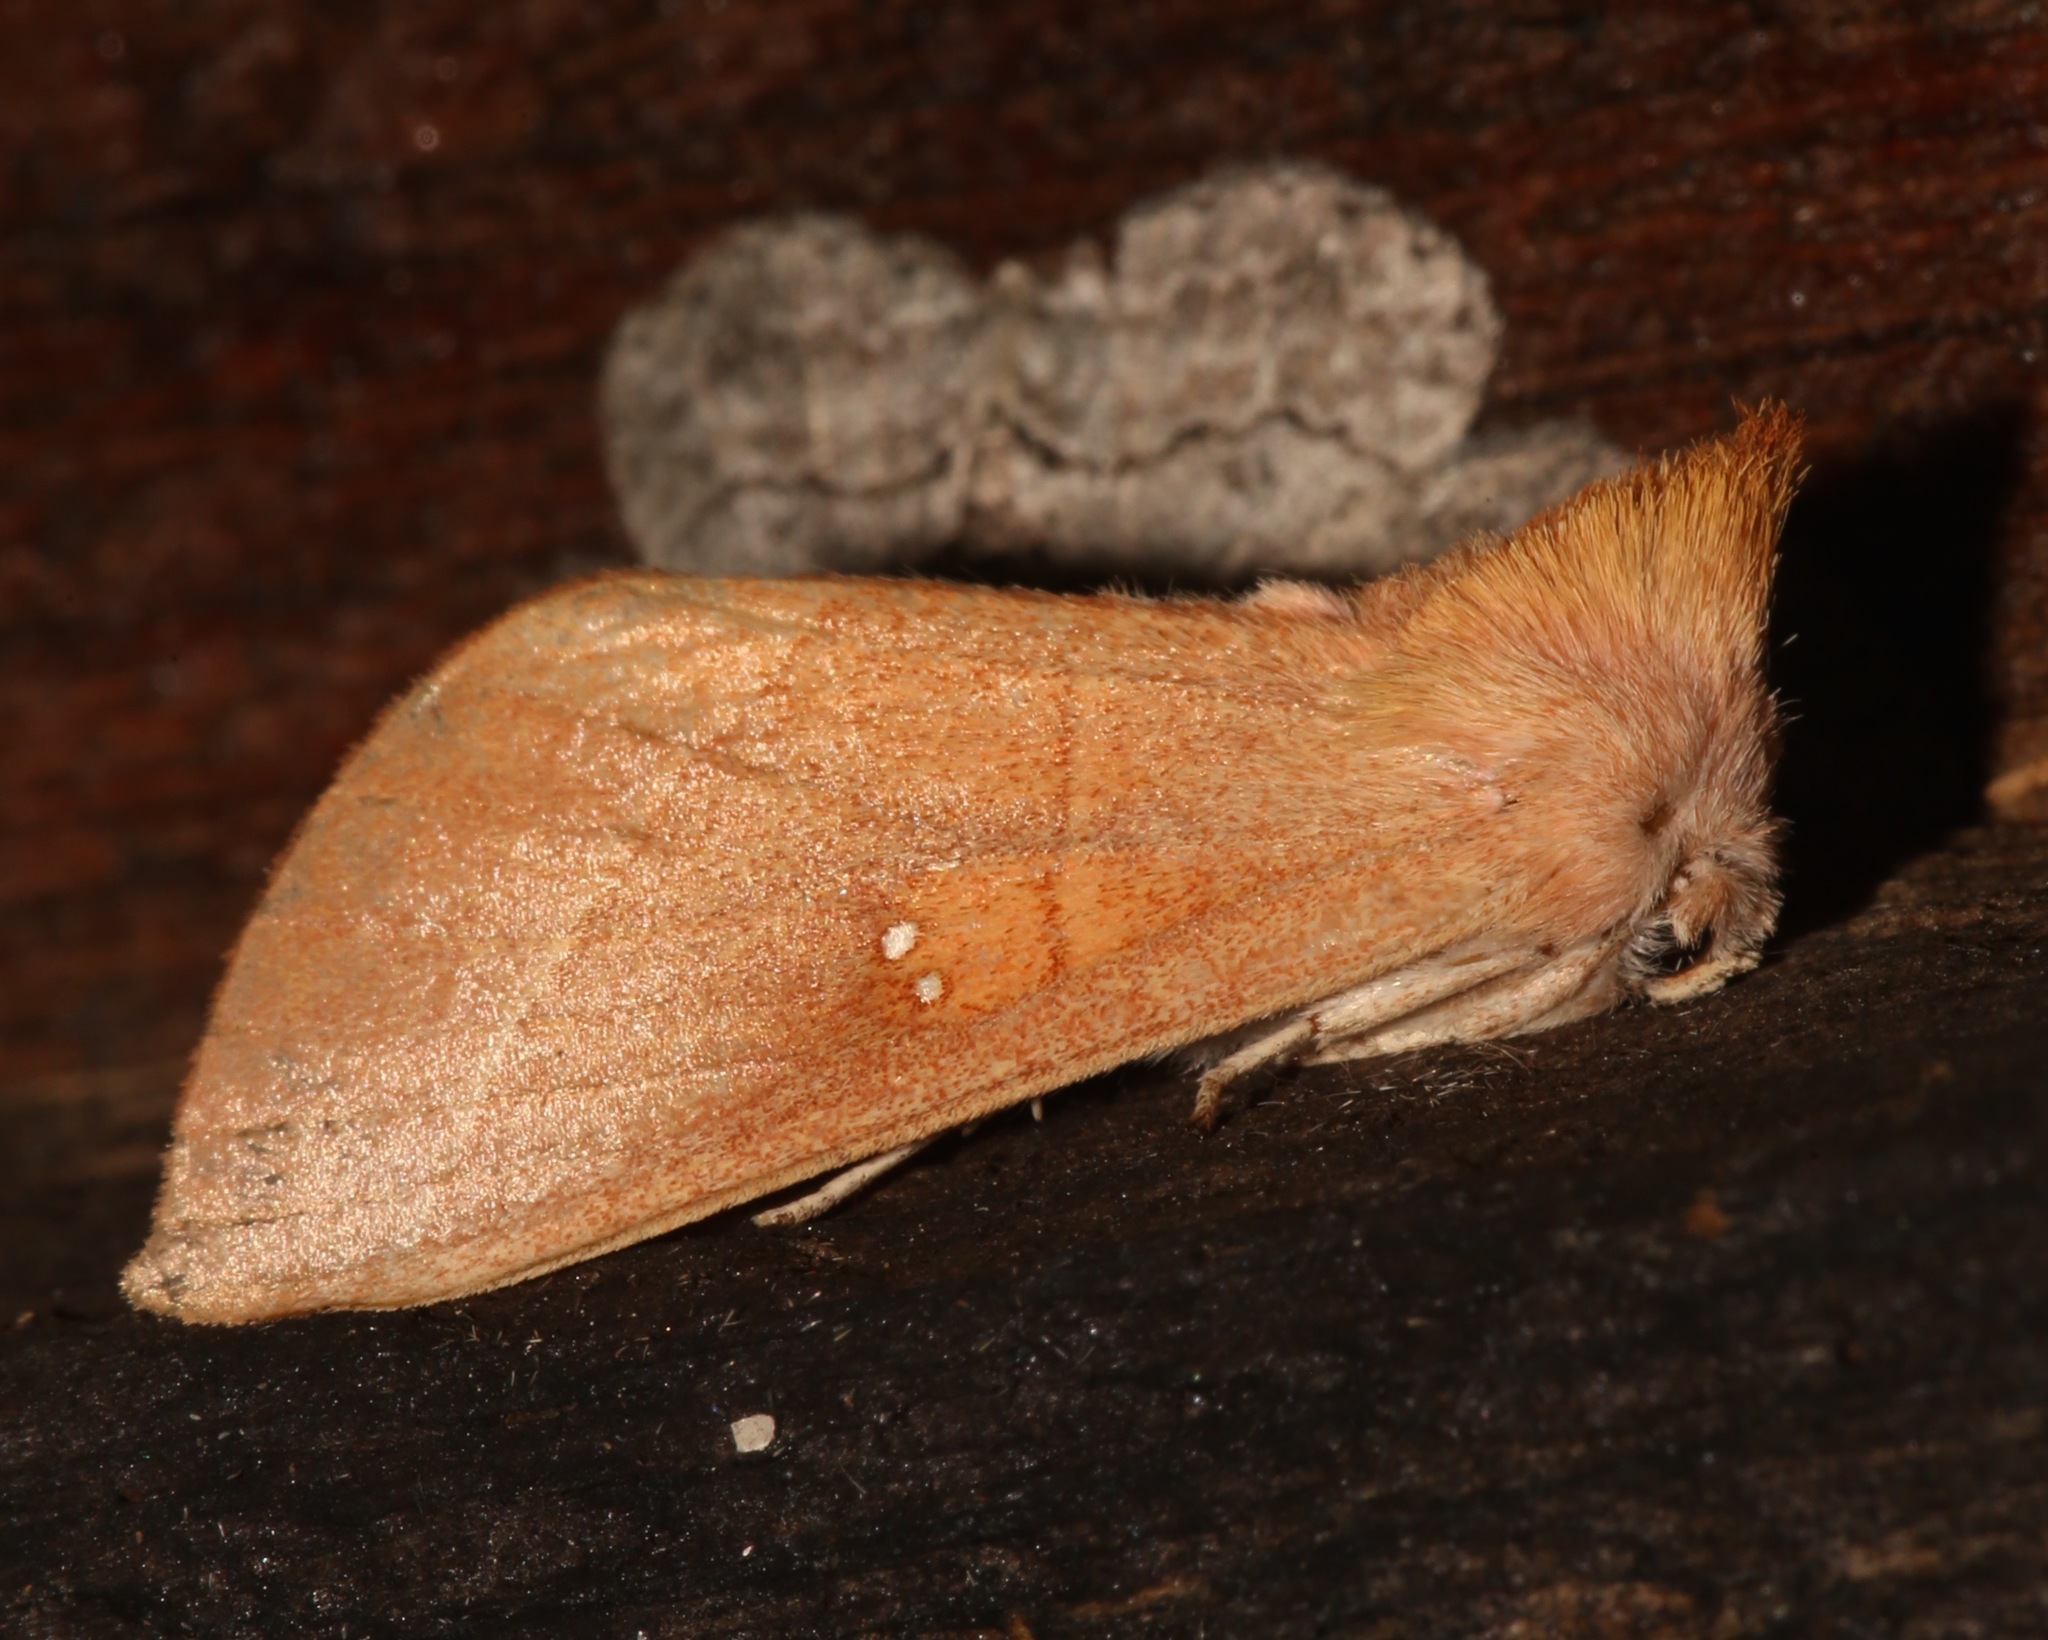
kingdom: Animalia
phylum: Arthropoda
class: Insecta
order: Lepidoptera
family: Notodontidae
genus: Nadata
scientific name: Nadata gibbosa
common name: White-dotted prominent
